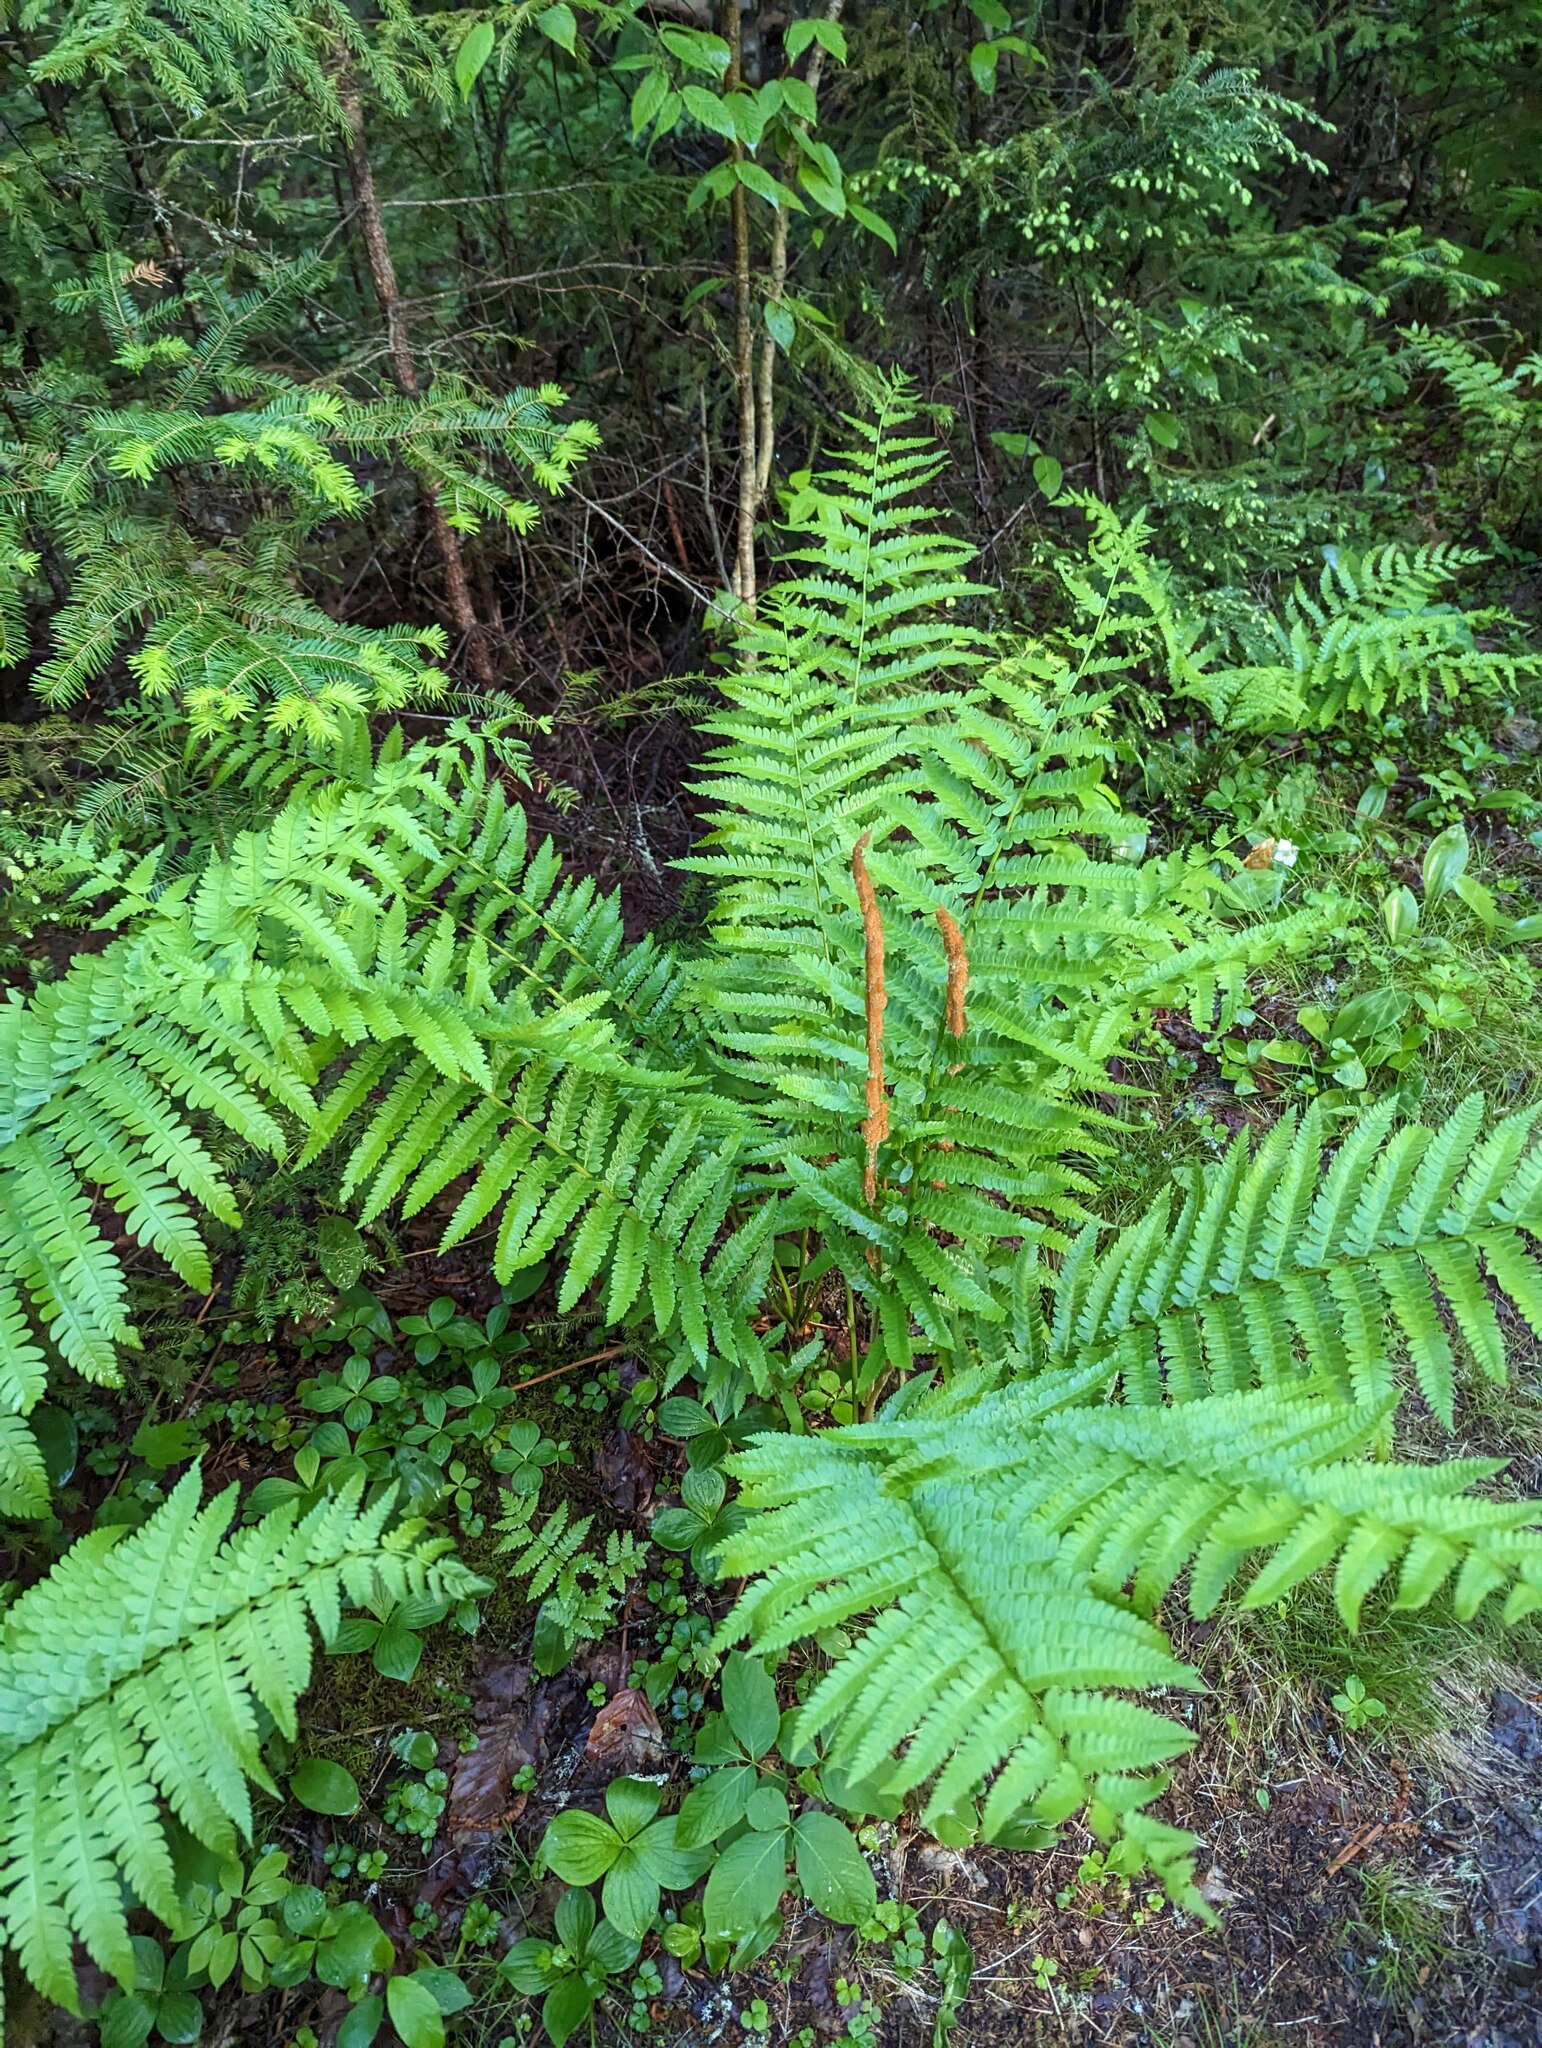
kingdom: Plantae
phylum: Tracheophyta
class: Polypodiopsida
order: Osmundales
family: Osmundaceae
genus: Osmundastrum
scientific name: Osmundastrum cinnamomeum
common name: Cinnamon fern
